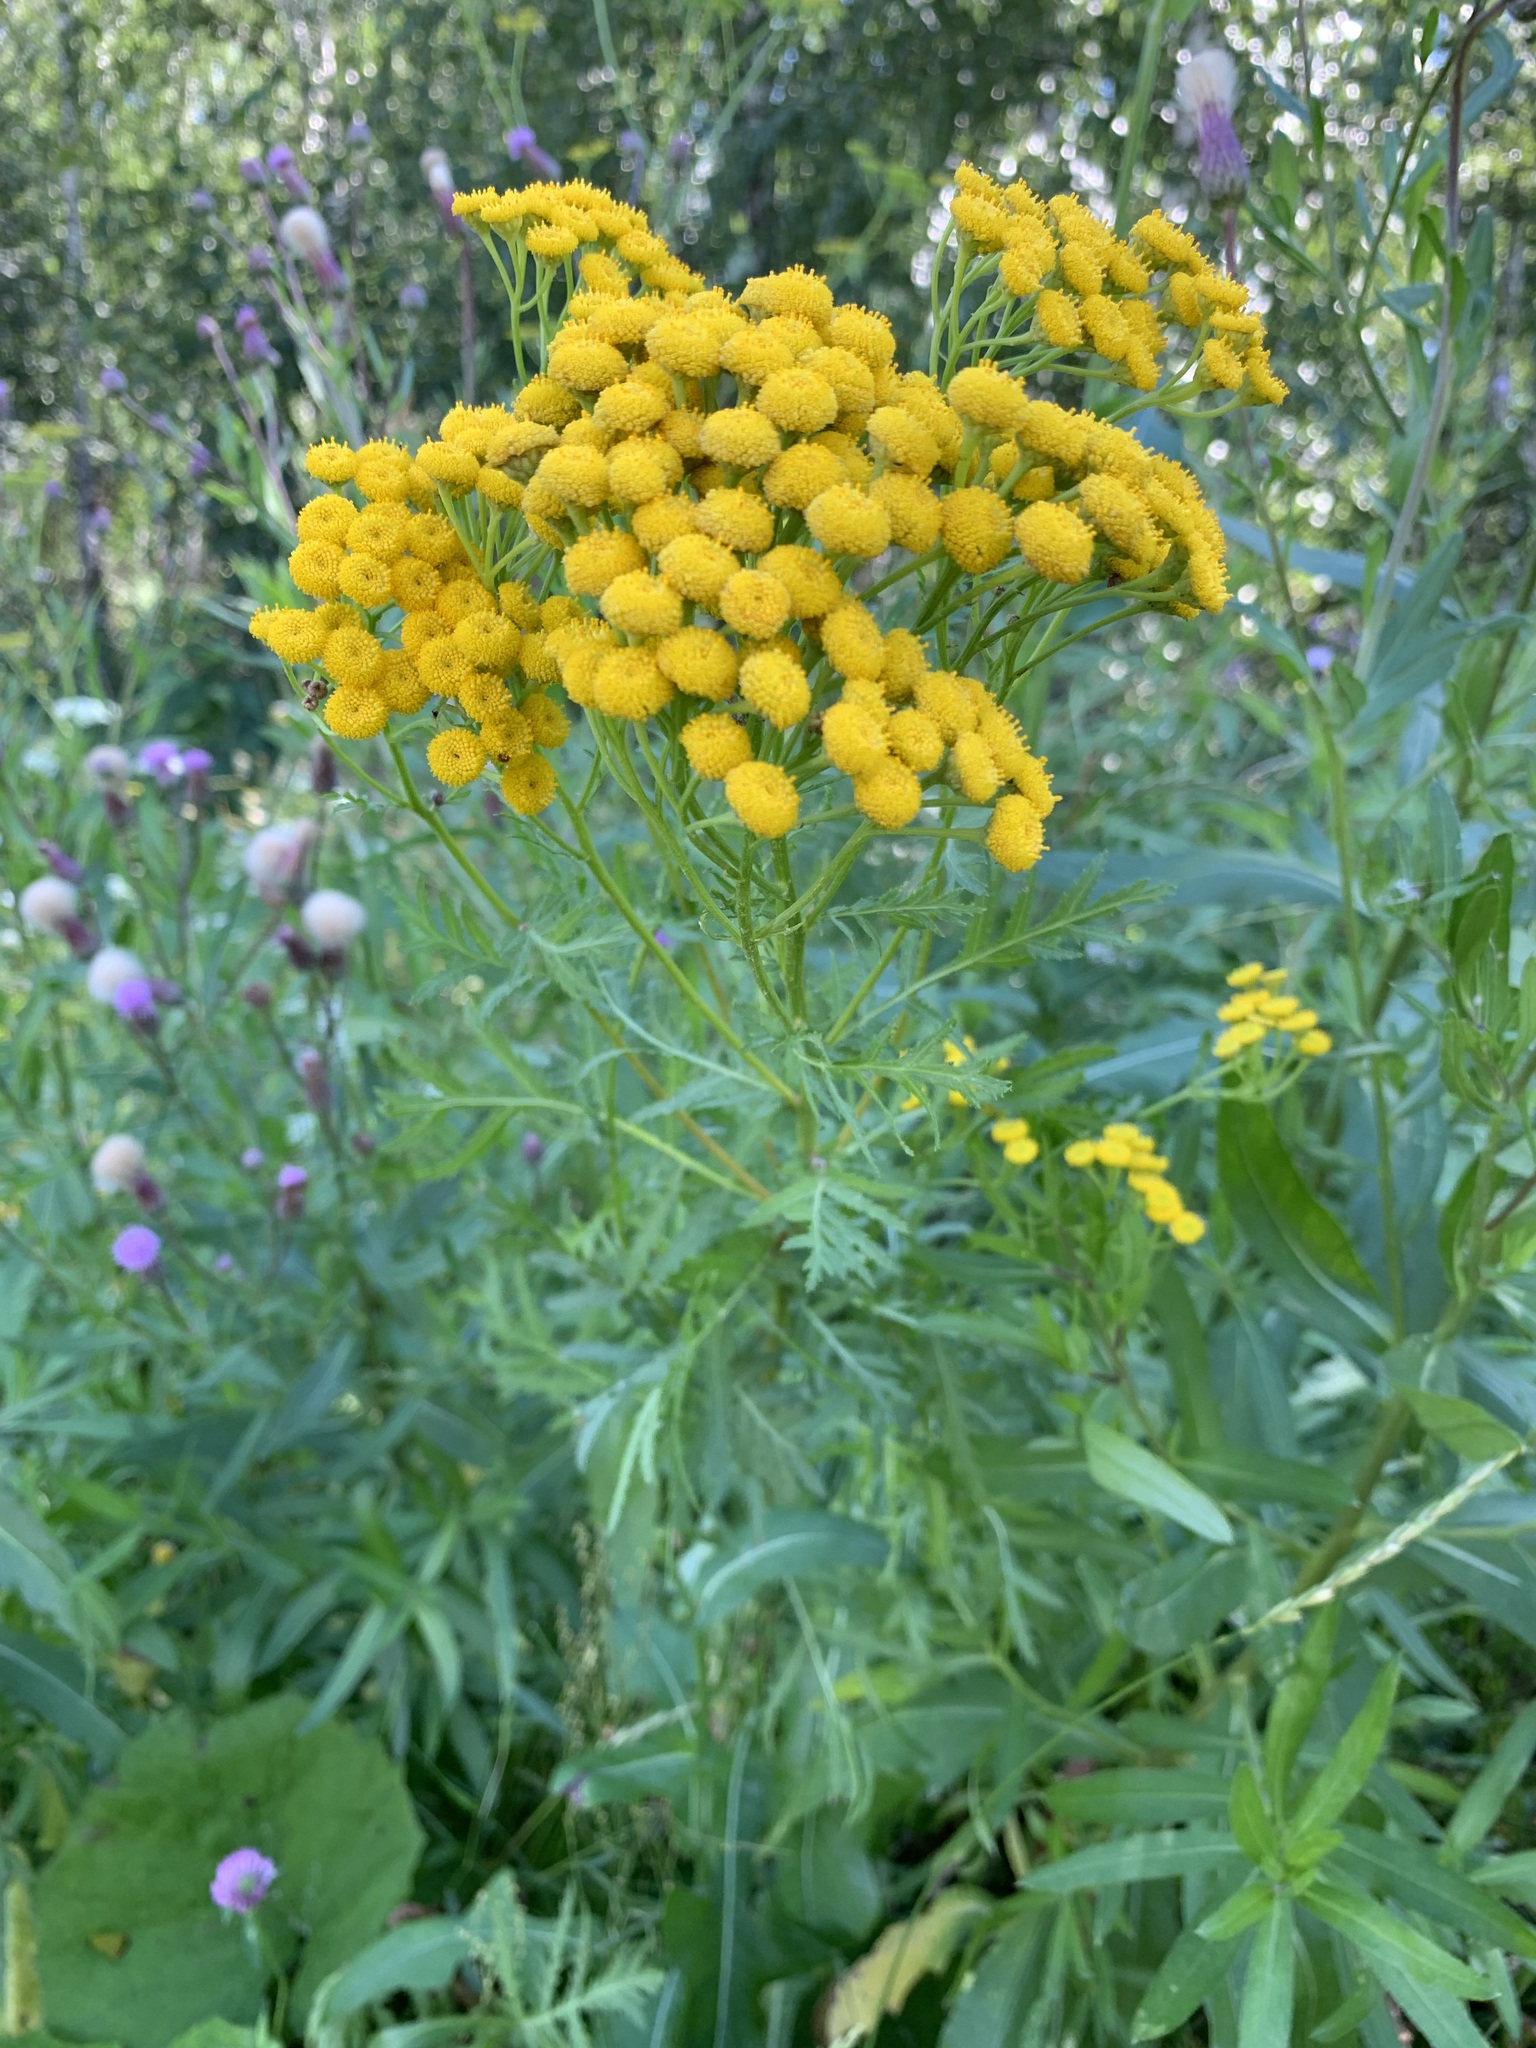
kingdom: Plantae
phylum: Tracheophyta
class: Magnoliopsida
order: Asterales
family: Asteraceae
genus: Tanacetum
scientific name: Tanacetum vulgare
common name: Common tansy
